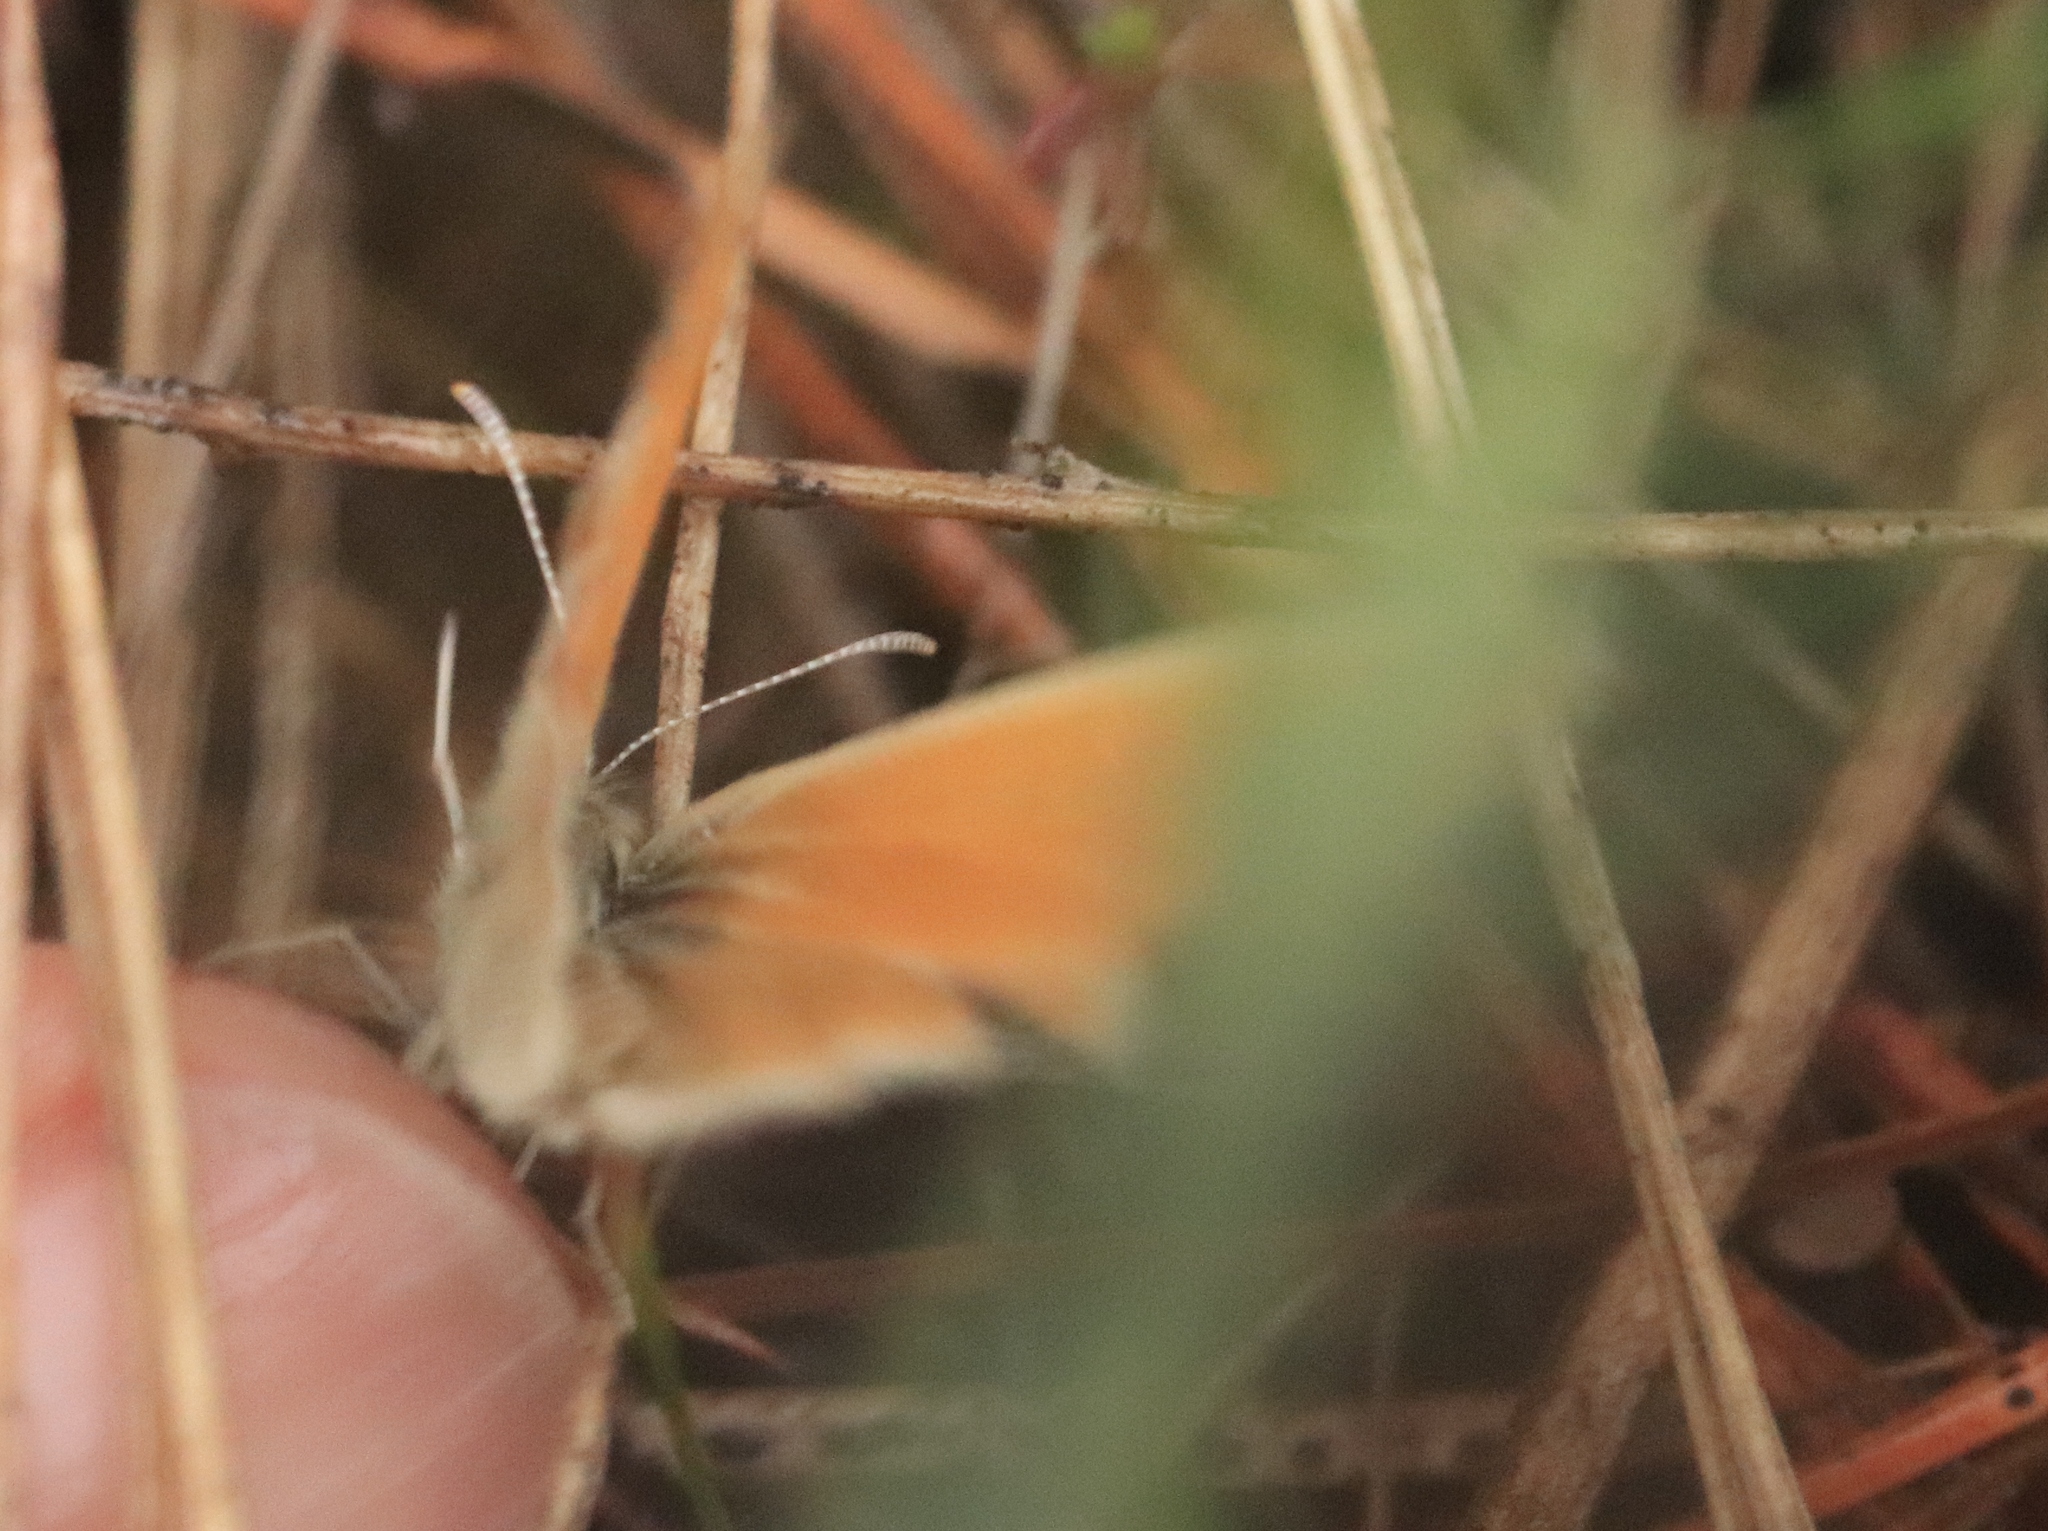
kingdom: Animalia
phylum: Arthropoda
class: Insecta
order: Lepidoptera
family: Nymphalidae
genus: Coenonympha
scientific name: Coenonympha california
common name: Common ringlet
